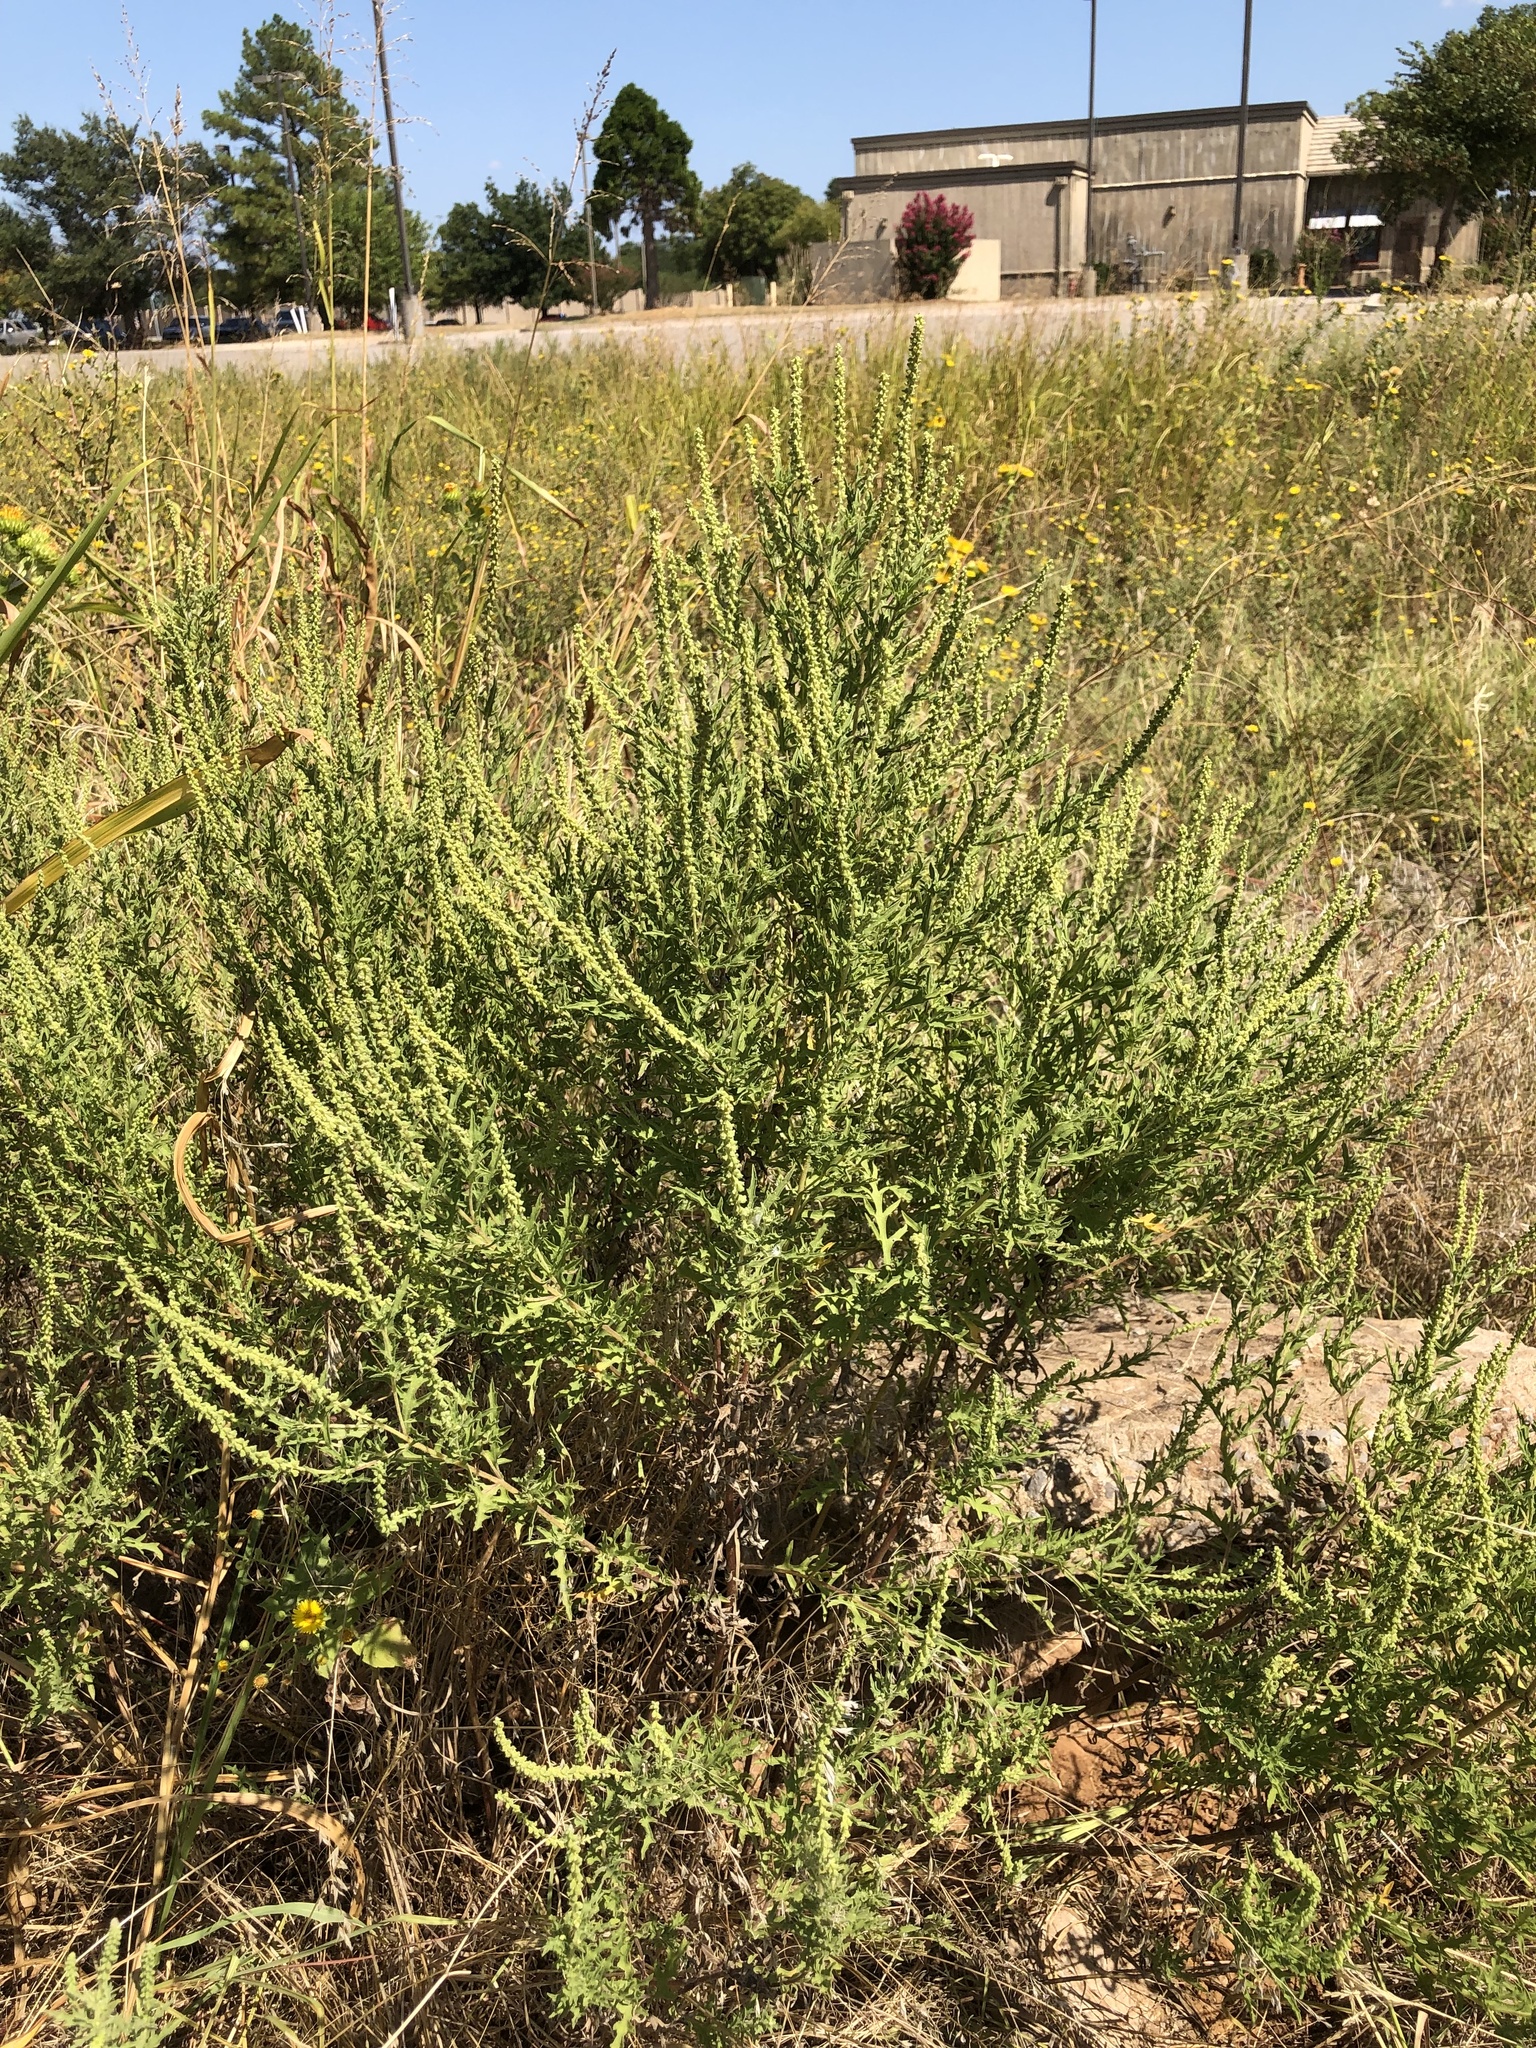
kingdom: Plantae
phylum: Tracheophyta
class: Magnoliopsida
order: Asterales
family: Asteraceae
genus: Ambrosia
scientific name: Ambrosia psilostachya
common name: Perennial ragweed
